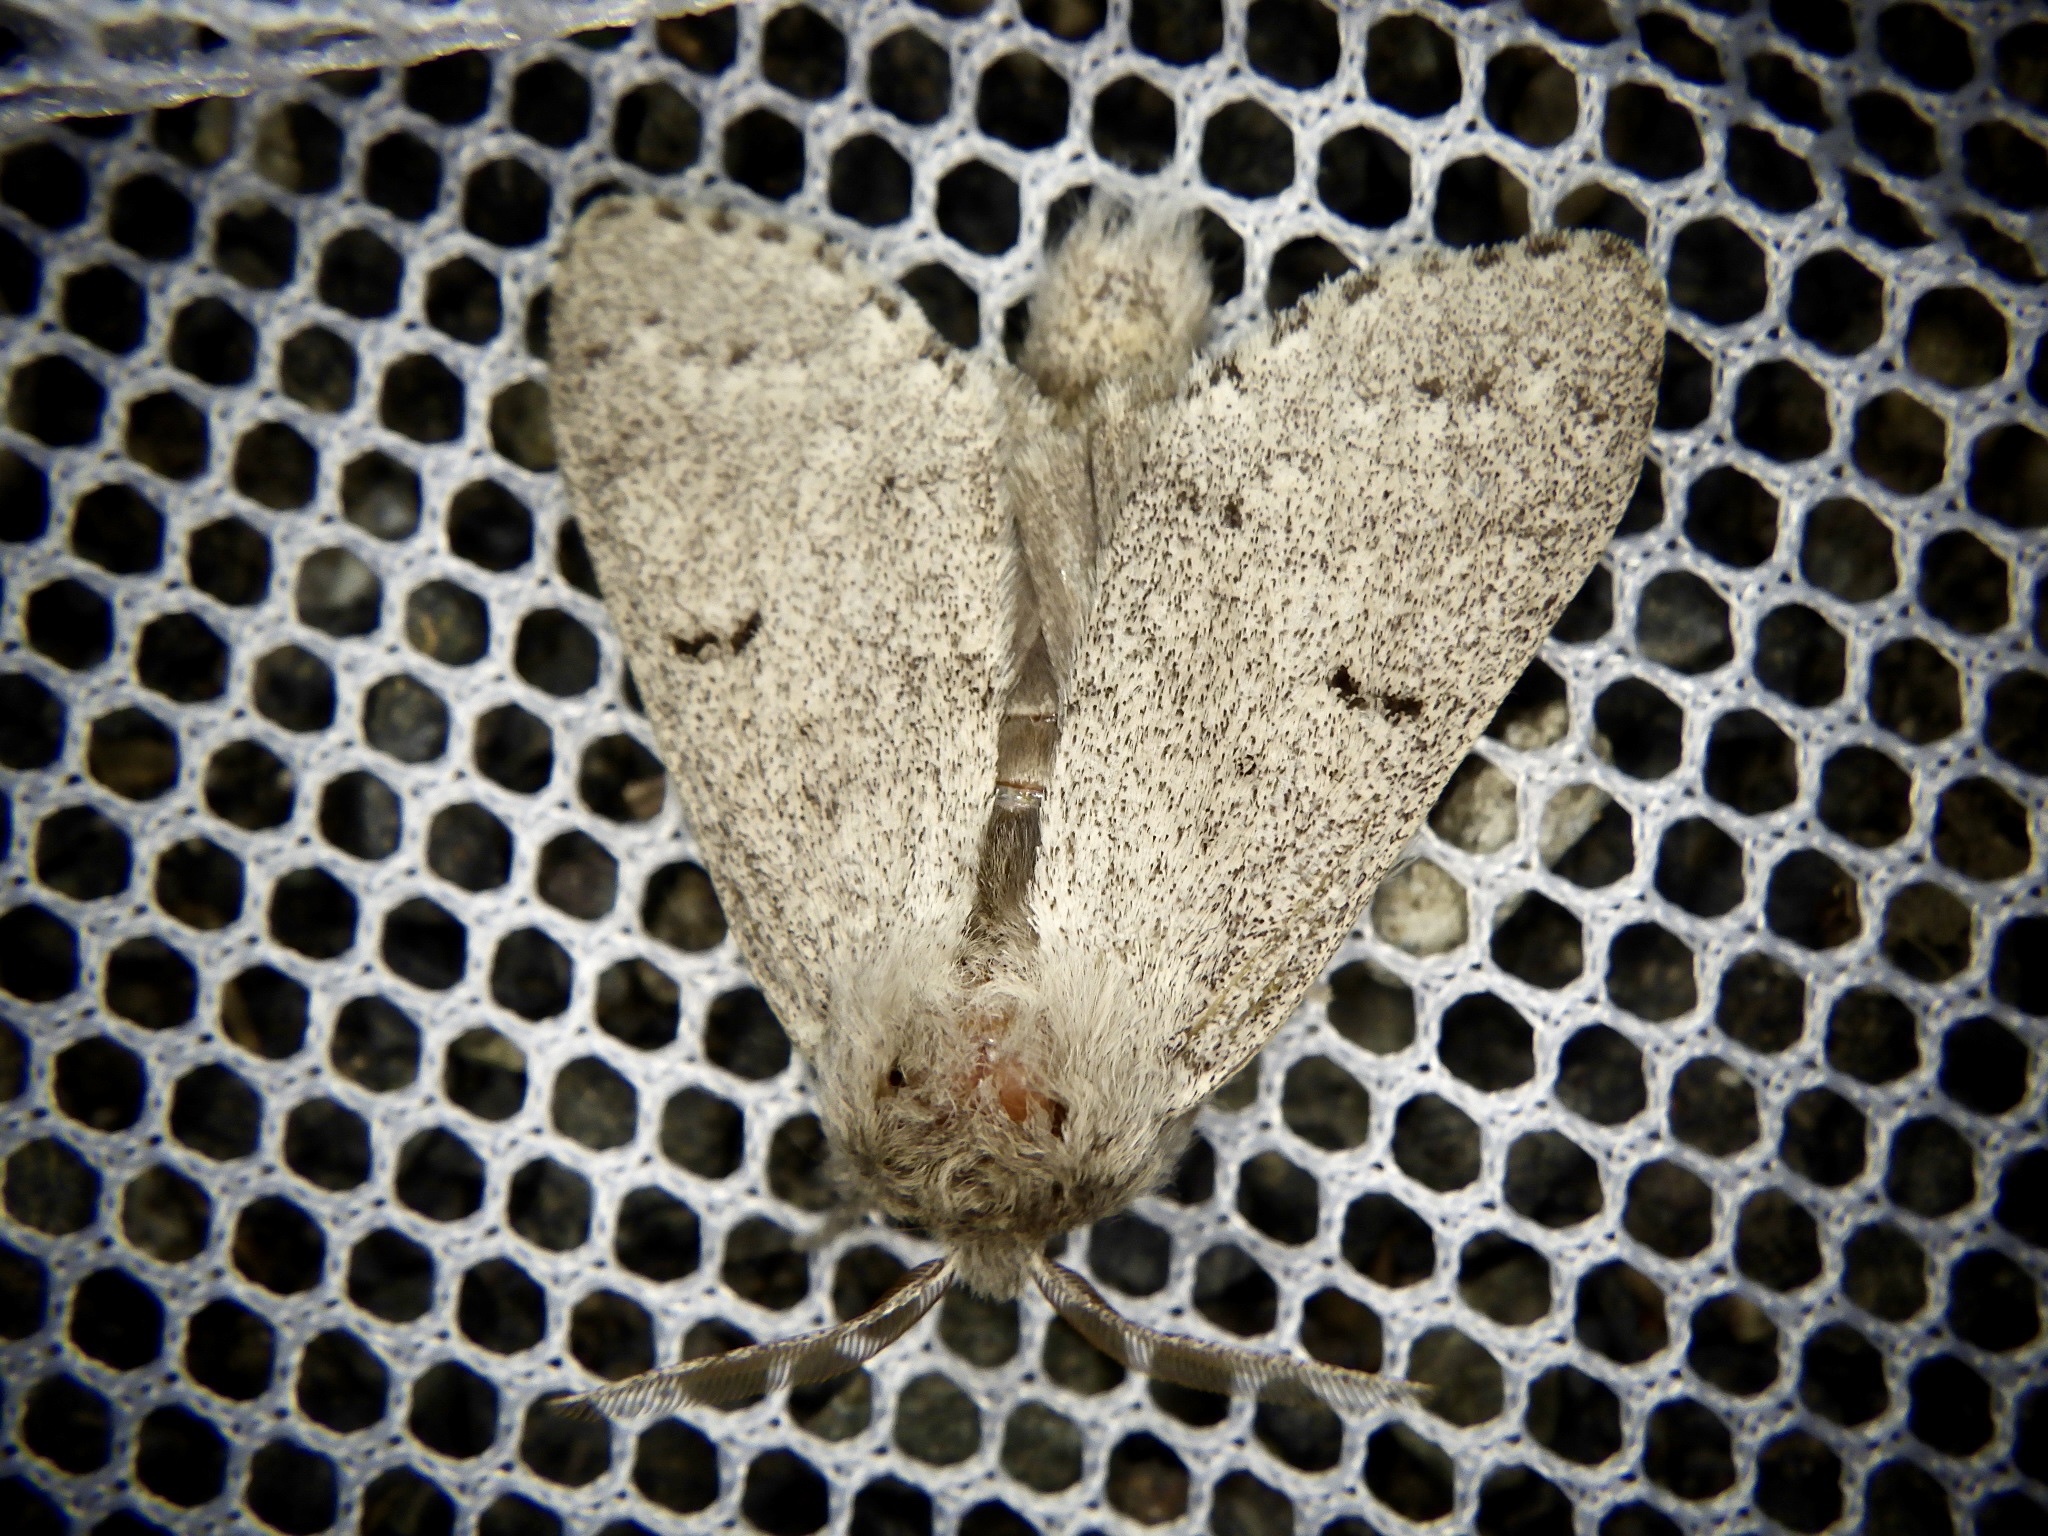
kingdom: Animalia
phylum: Arthropoda
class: Insecta
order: Lepidoptera
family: Notodontidae
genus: Cnethodonta
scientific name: Cnethodonta grisescens
